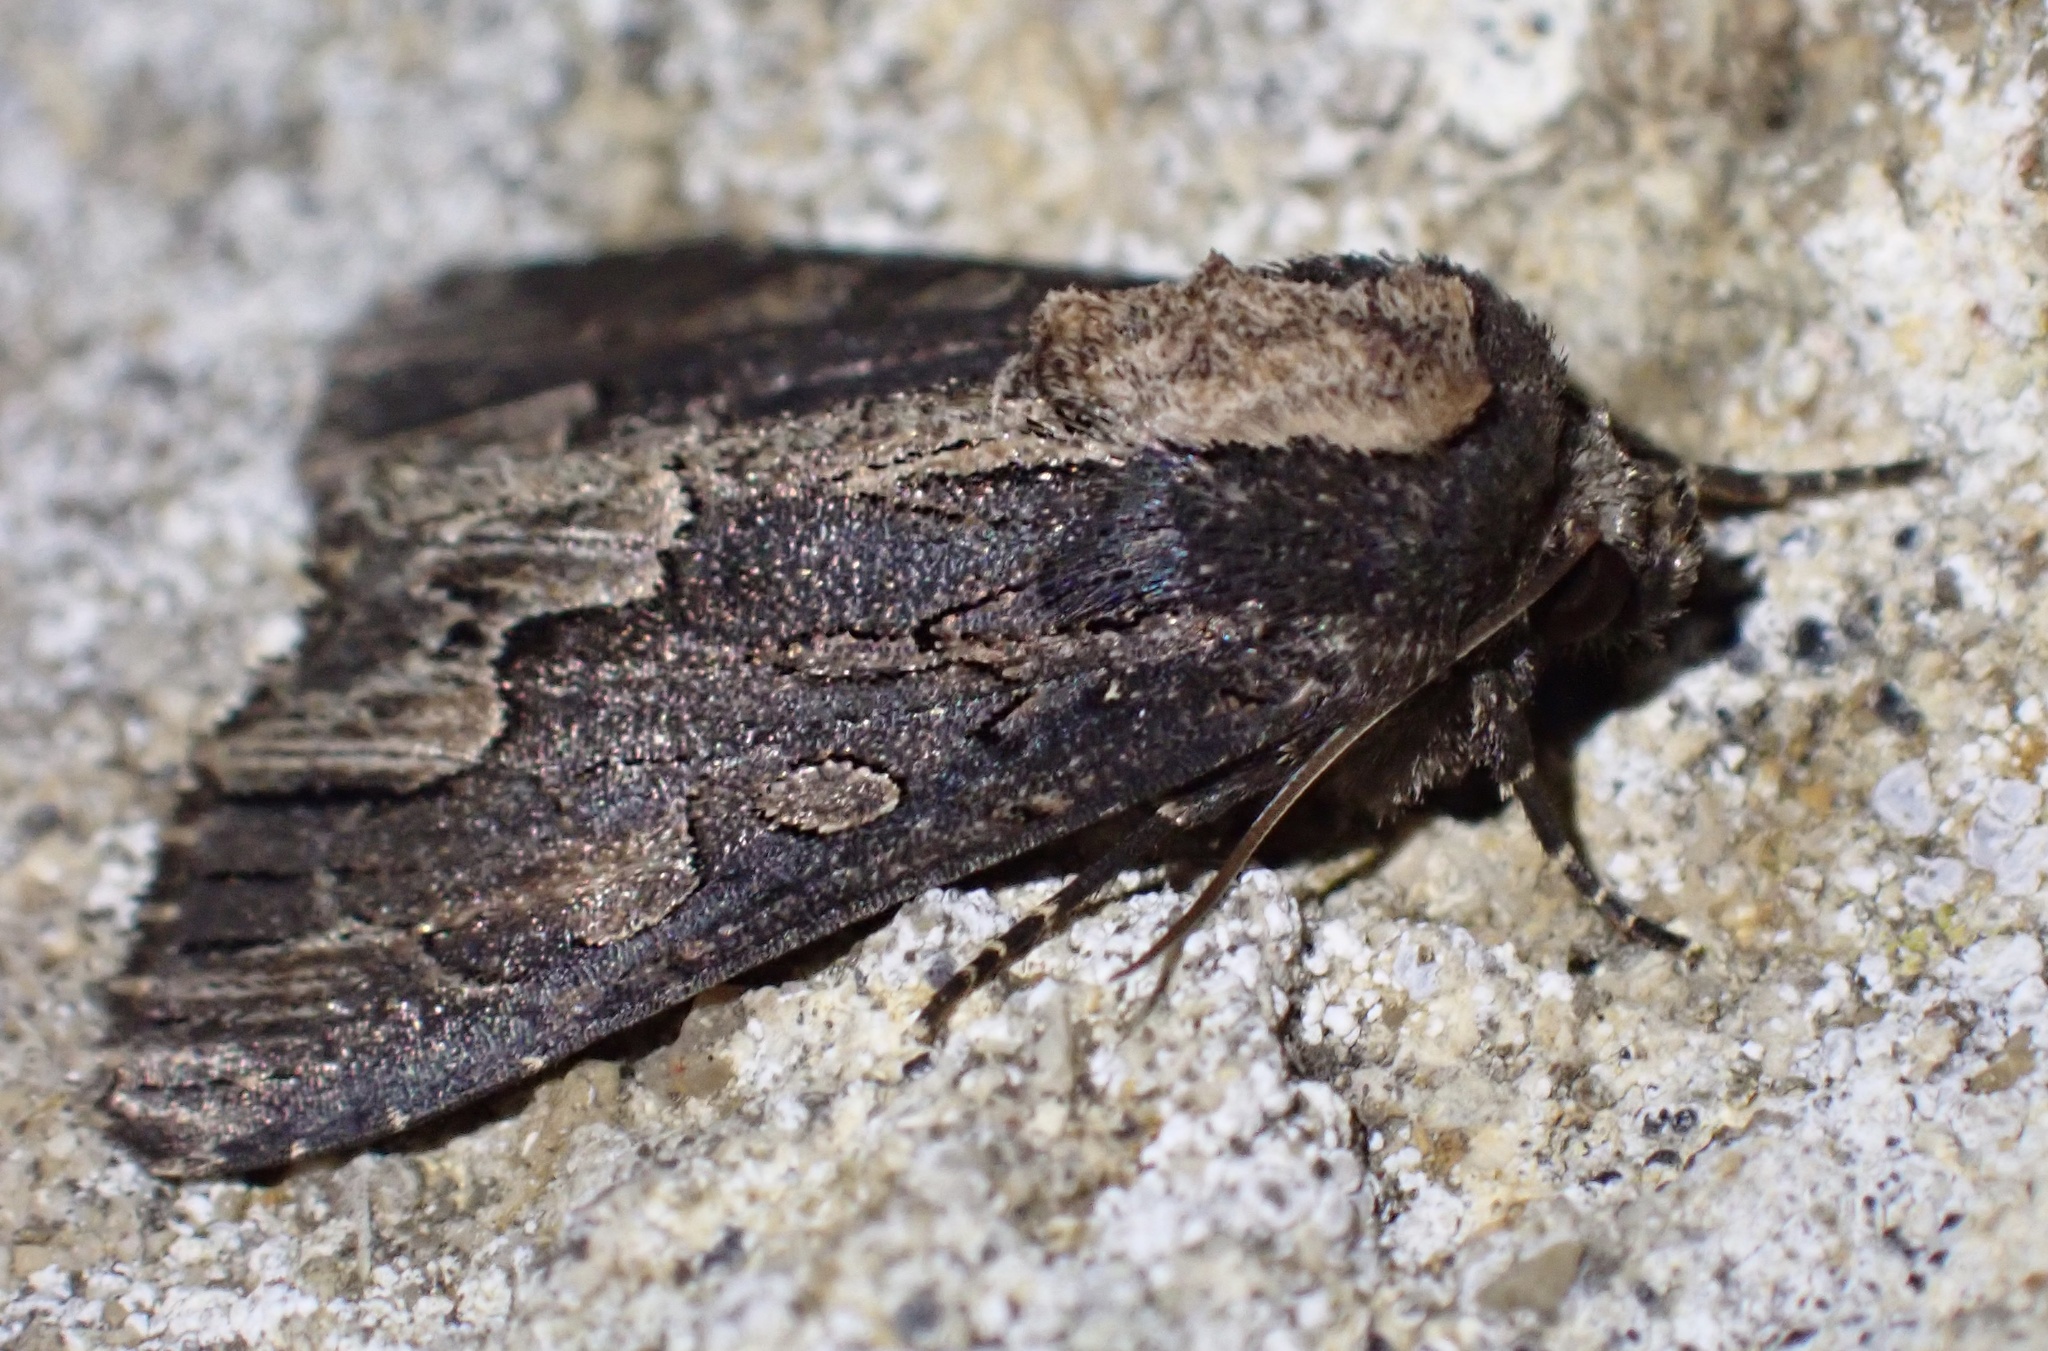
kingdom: Animalia
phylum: Arthropoda
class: Insecta
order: Lepidoptera
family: Noctuidae
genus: Dypterygia
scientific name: Dypterygia scabriuscula
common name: Bird's wing
